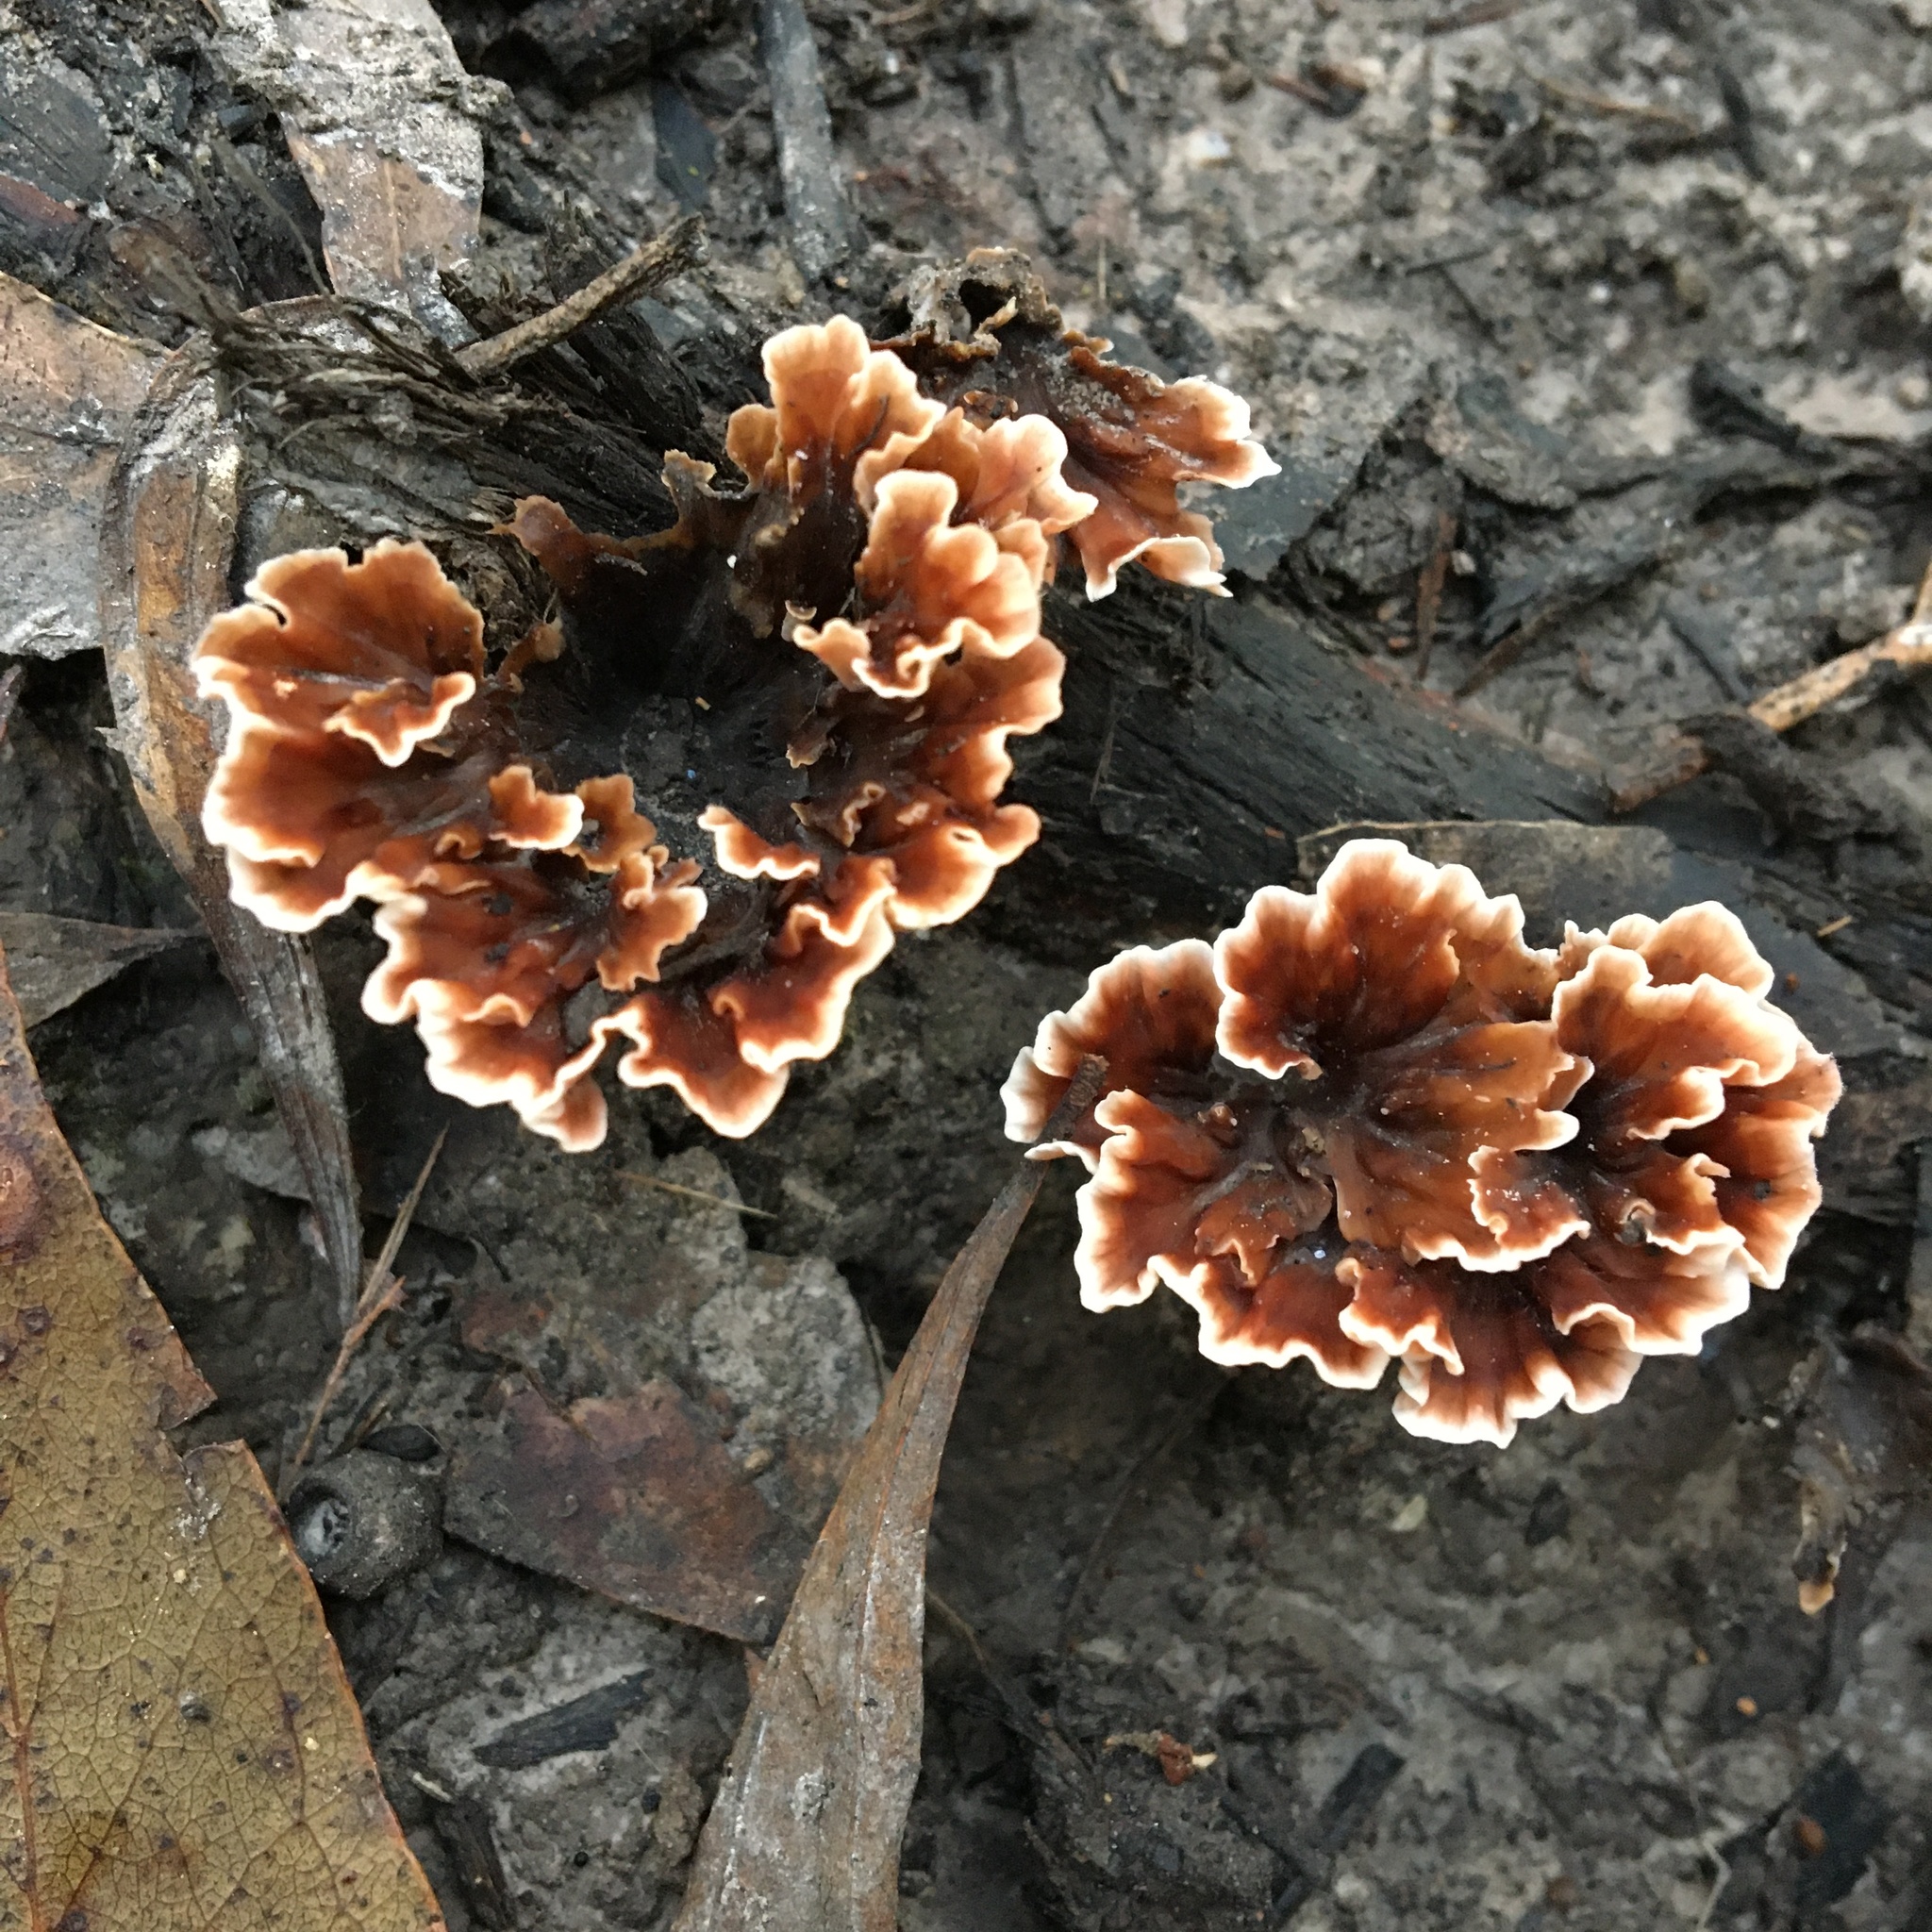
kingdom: Fungi
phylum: Basidiomycota
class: Agaricomycetes
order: Polyporales
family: Podoscyphaceae
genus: Podoscypha
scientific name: Podoscypha petalodes
